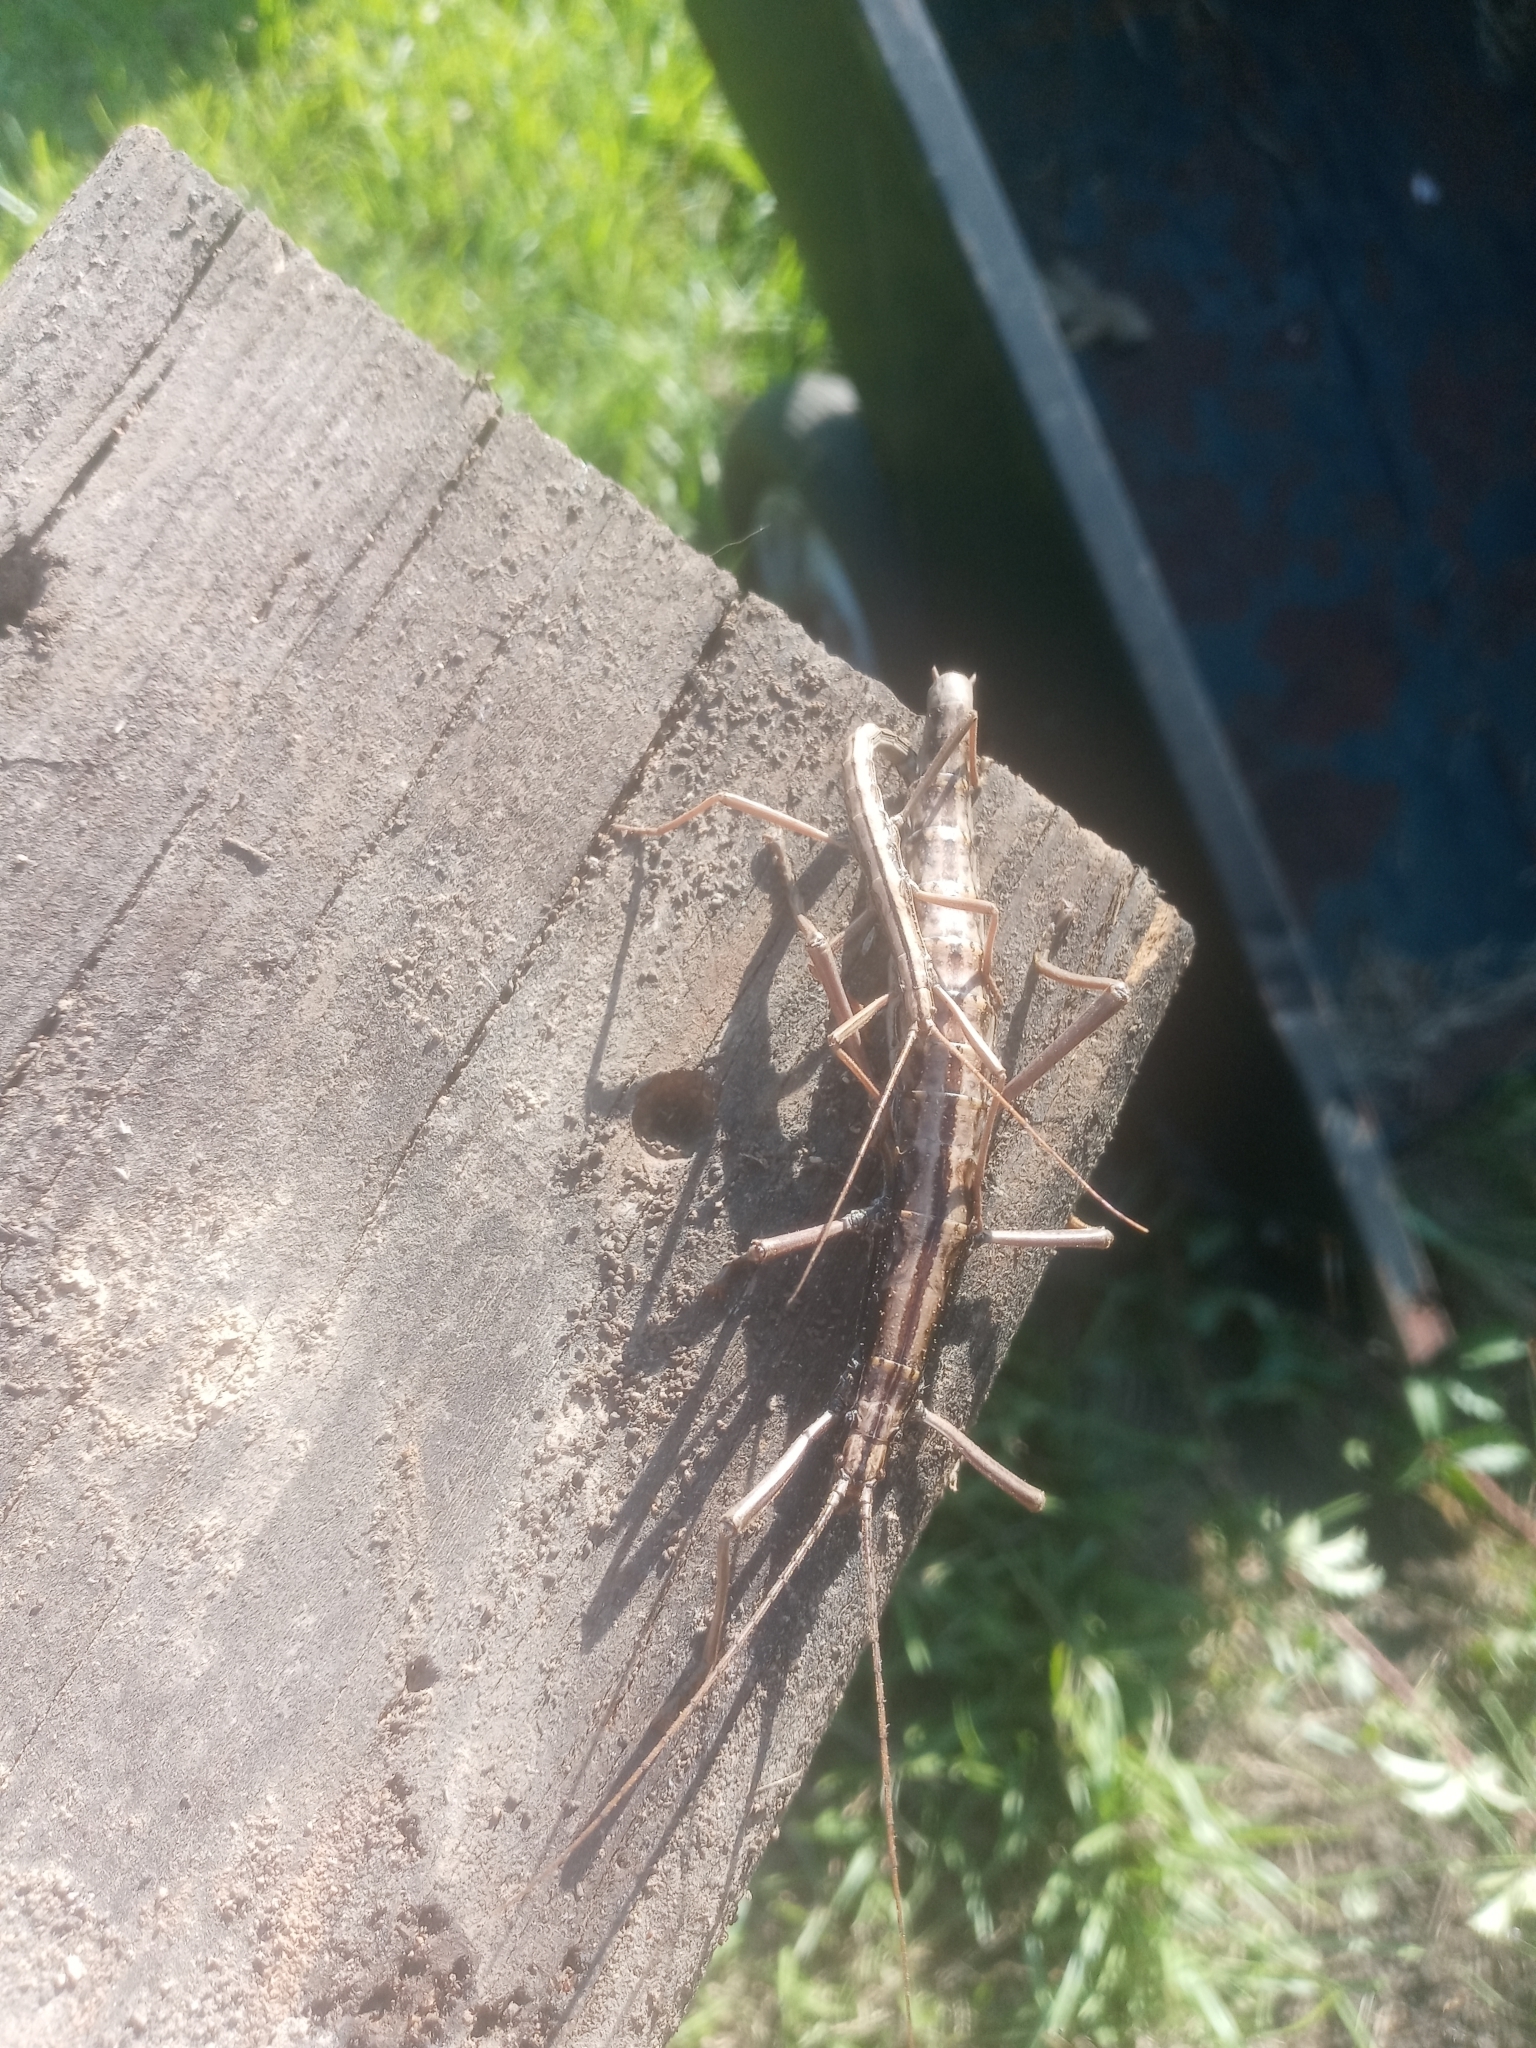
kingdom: Animalia
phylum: Arthropoda
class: Insecta
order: Phasmida
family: Pseudophasmatidae
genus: Anisomorpha
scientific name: Anisomorpha buprestoides
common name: Florida stick insect
